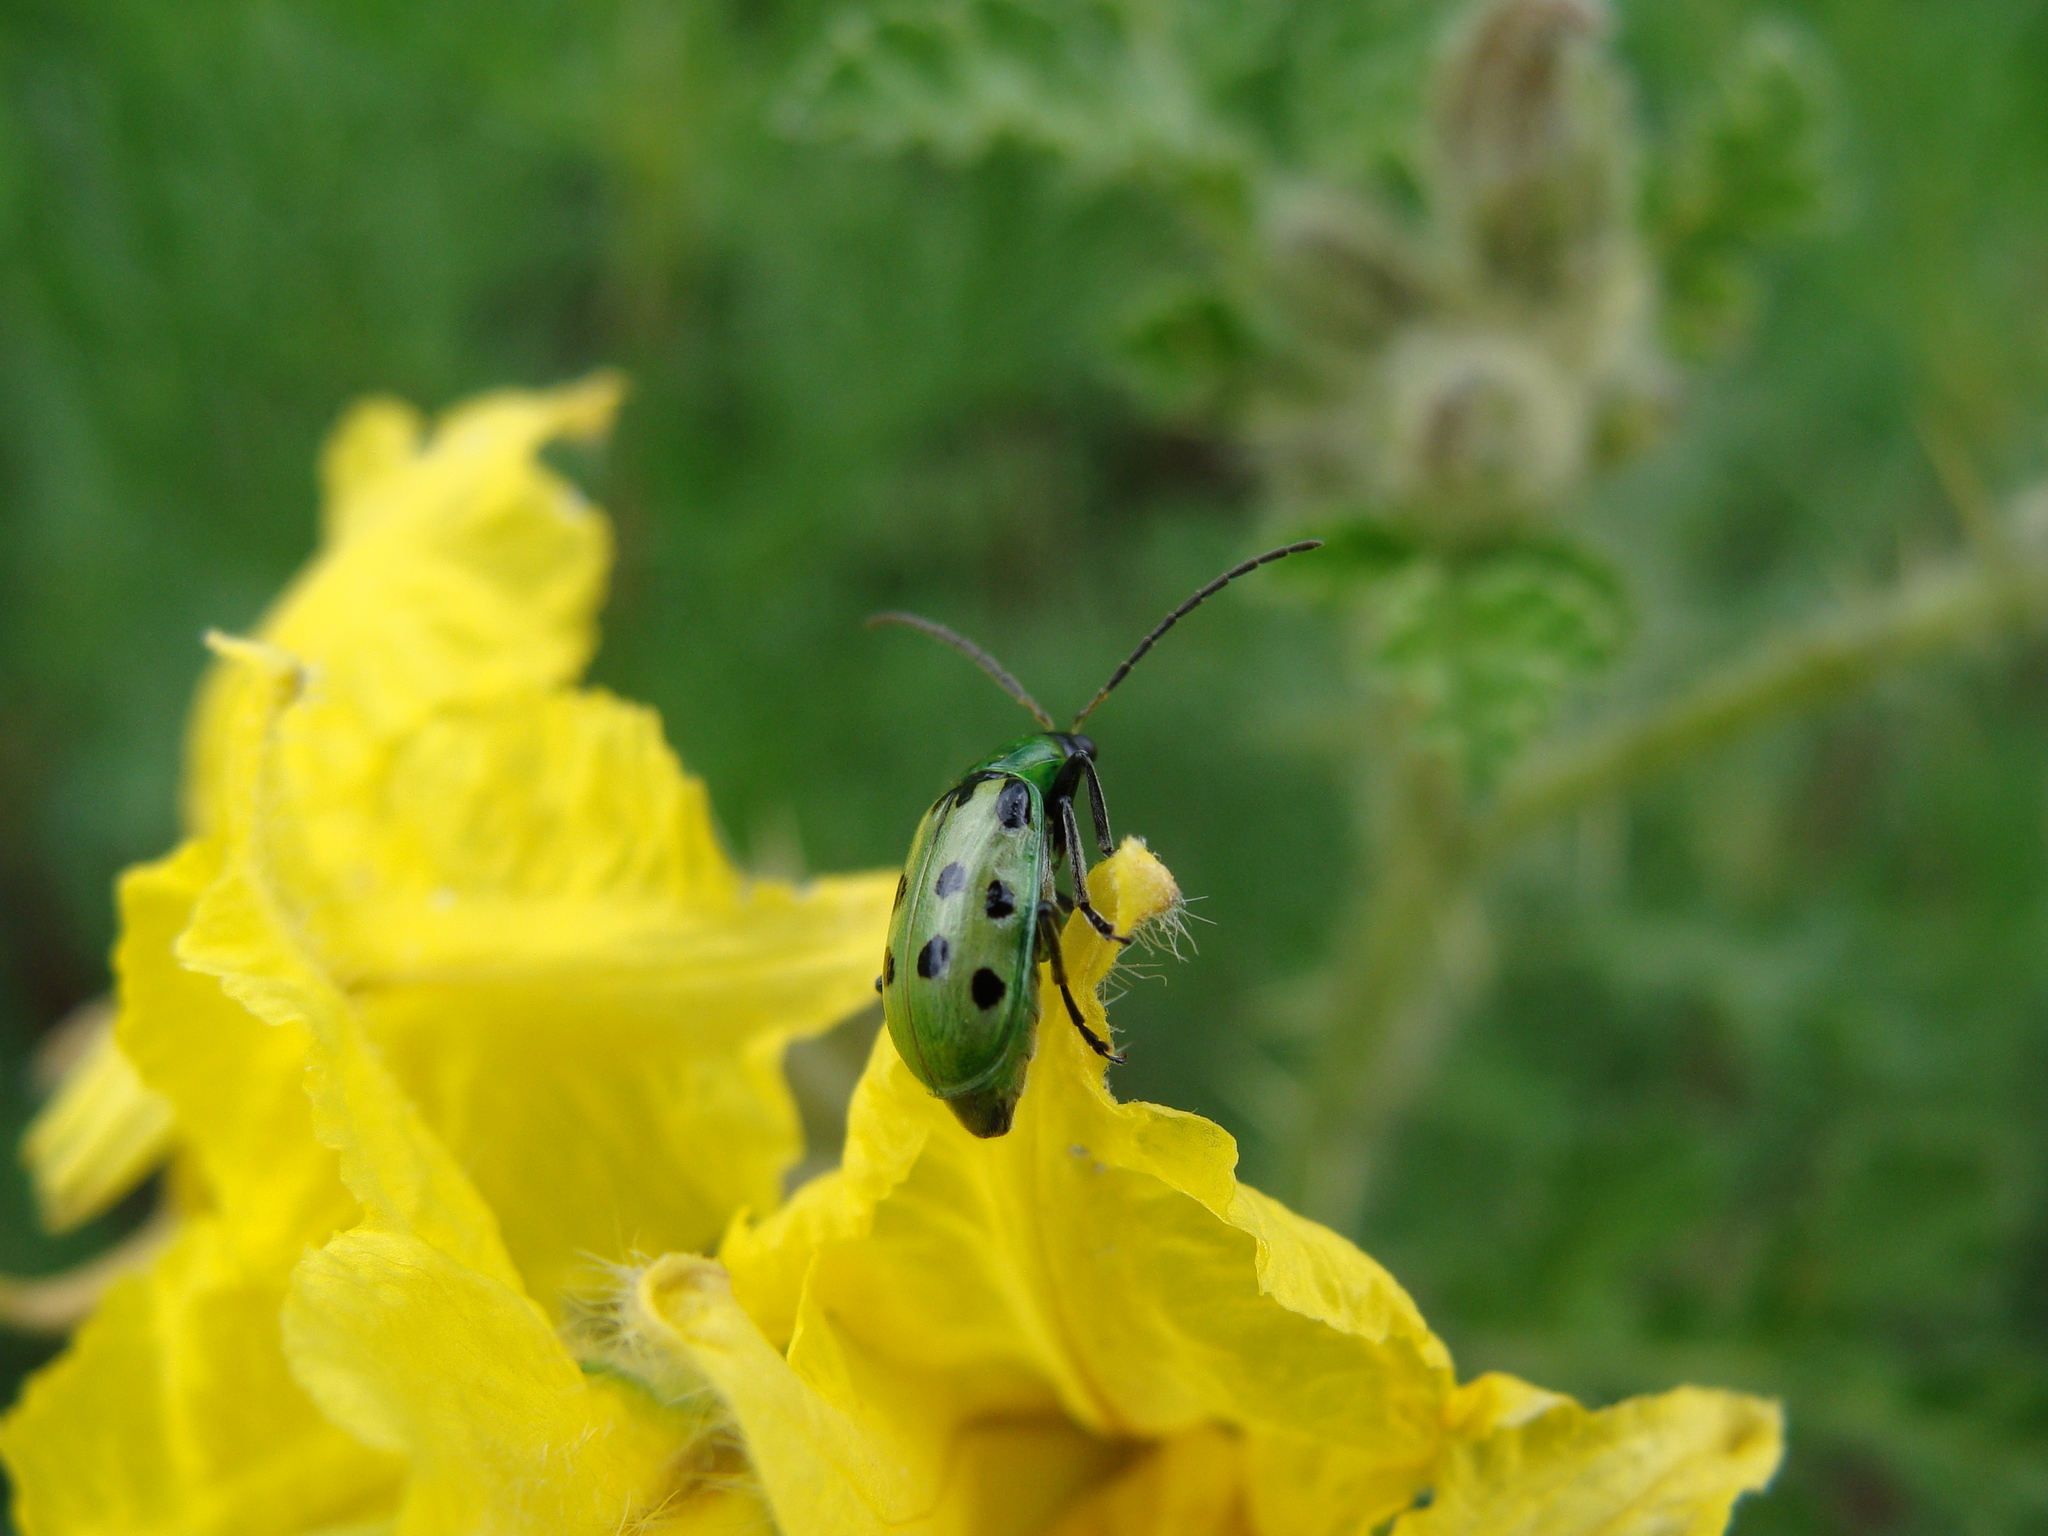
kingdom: Animalia
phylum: Arthropoda
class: Insecta
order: Coleoptera
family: Chrysomelidae
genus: Diabrotica
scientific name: Diabrotica undecimpunctata
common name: Spotted cucumber beetle
